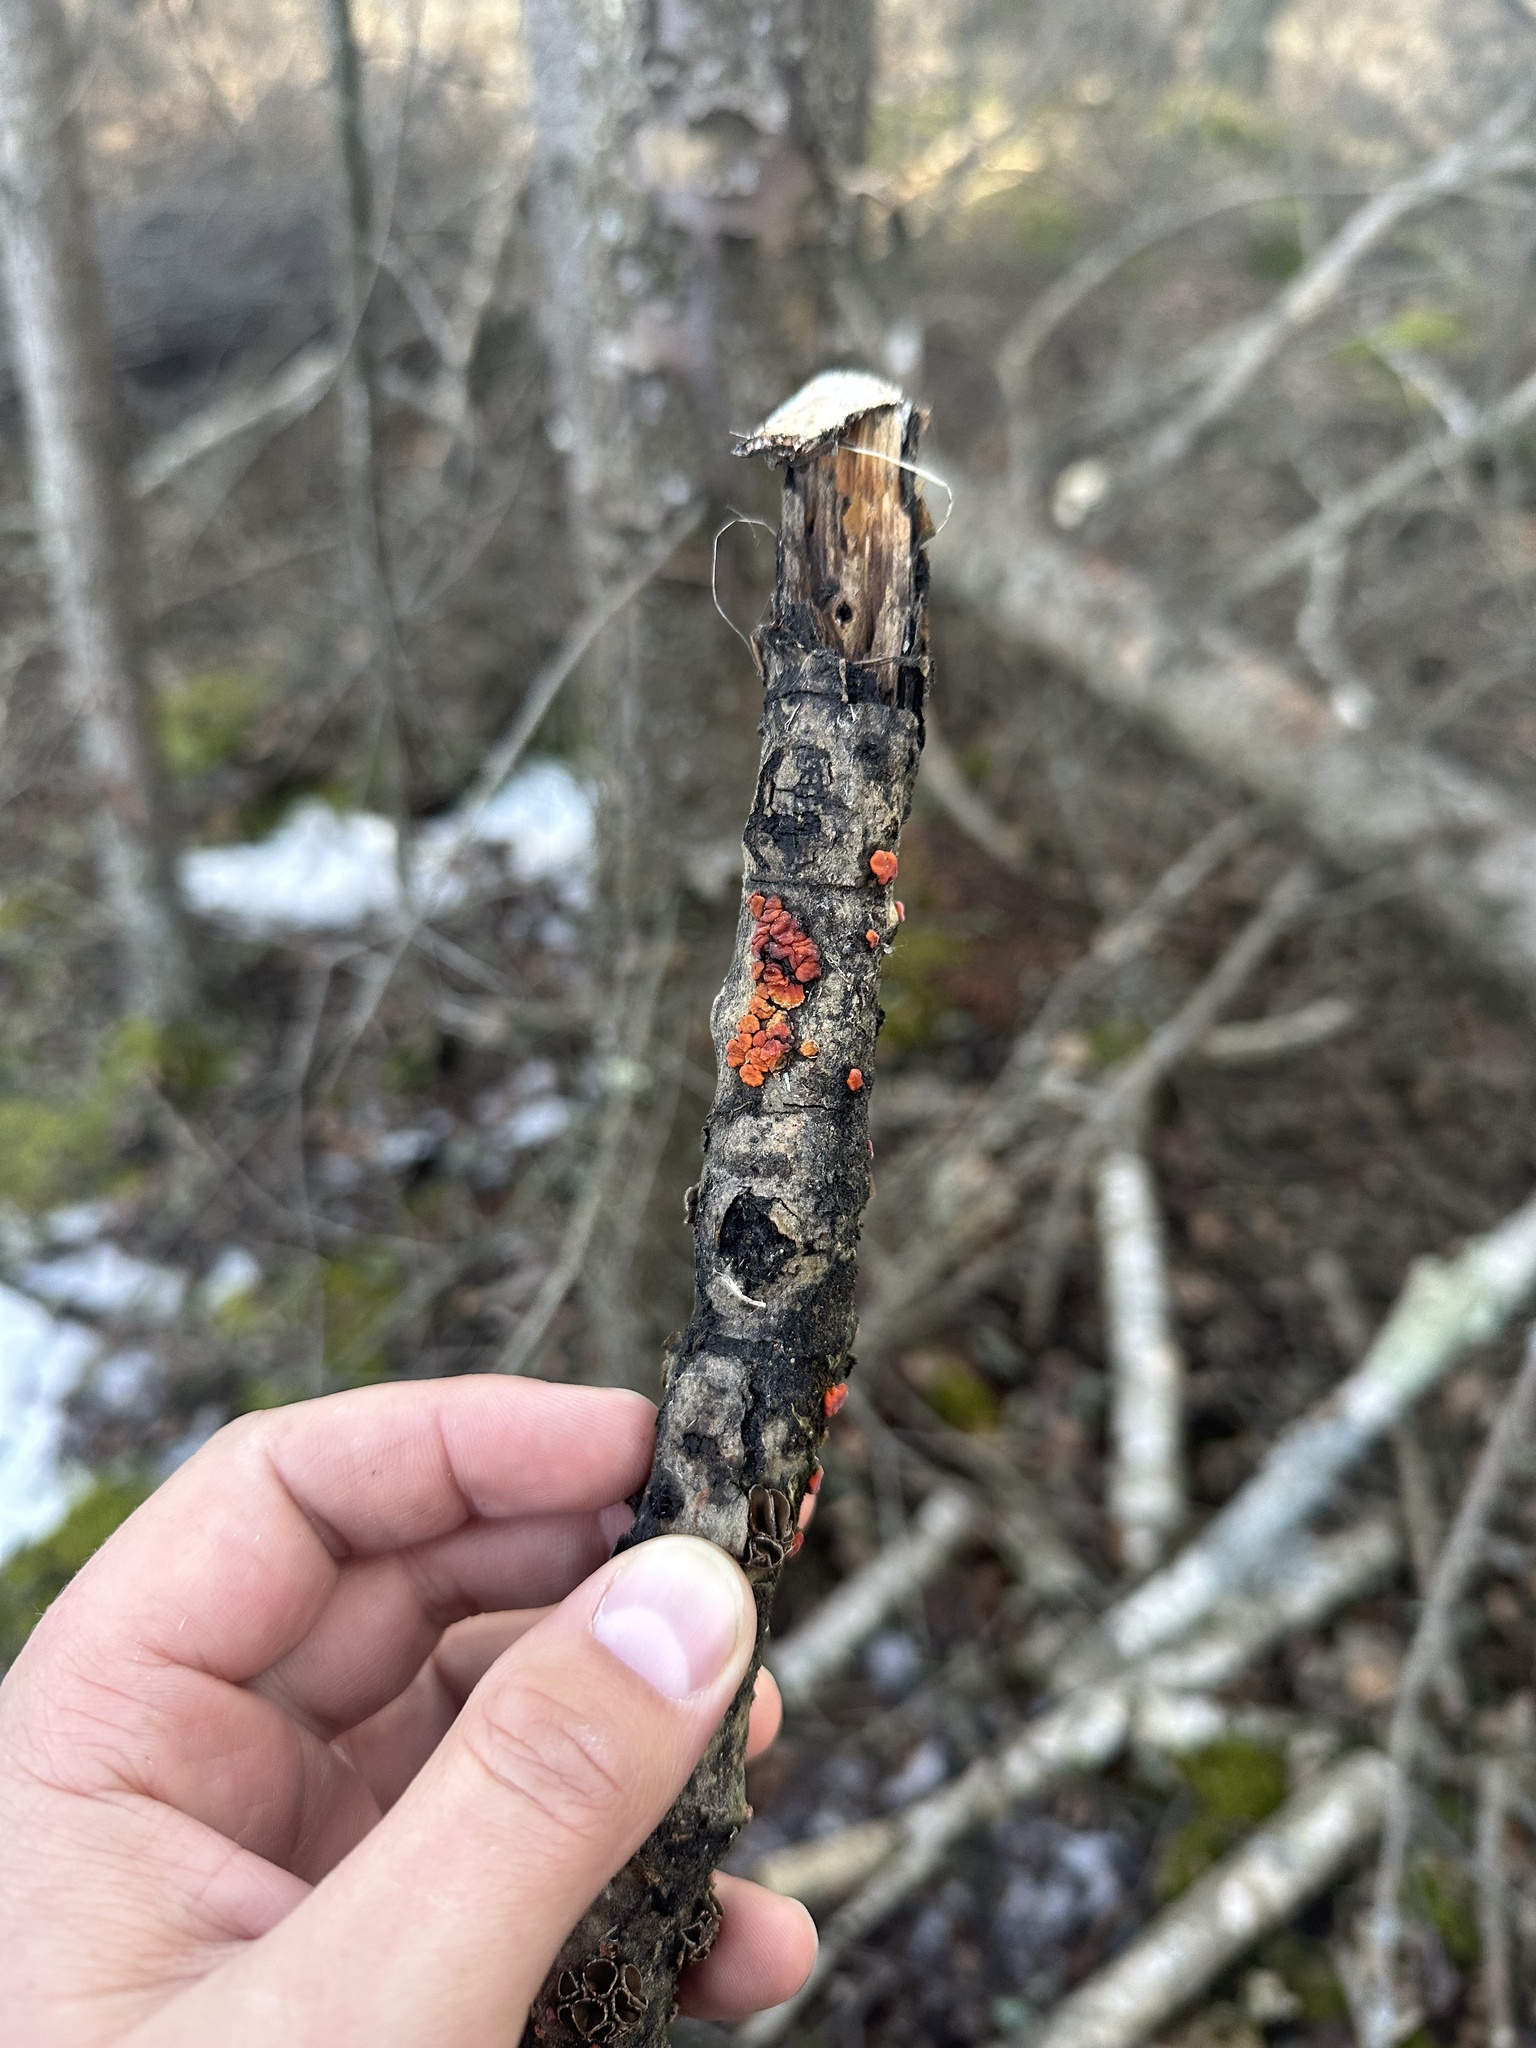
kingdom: Fungi
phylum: Basidiomycota
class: Agaricomycetes
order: Russulales
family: Peniophoraceae
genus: Peniophora
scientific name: Peniophora rufa
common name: Red tree brain fungus
